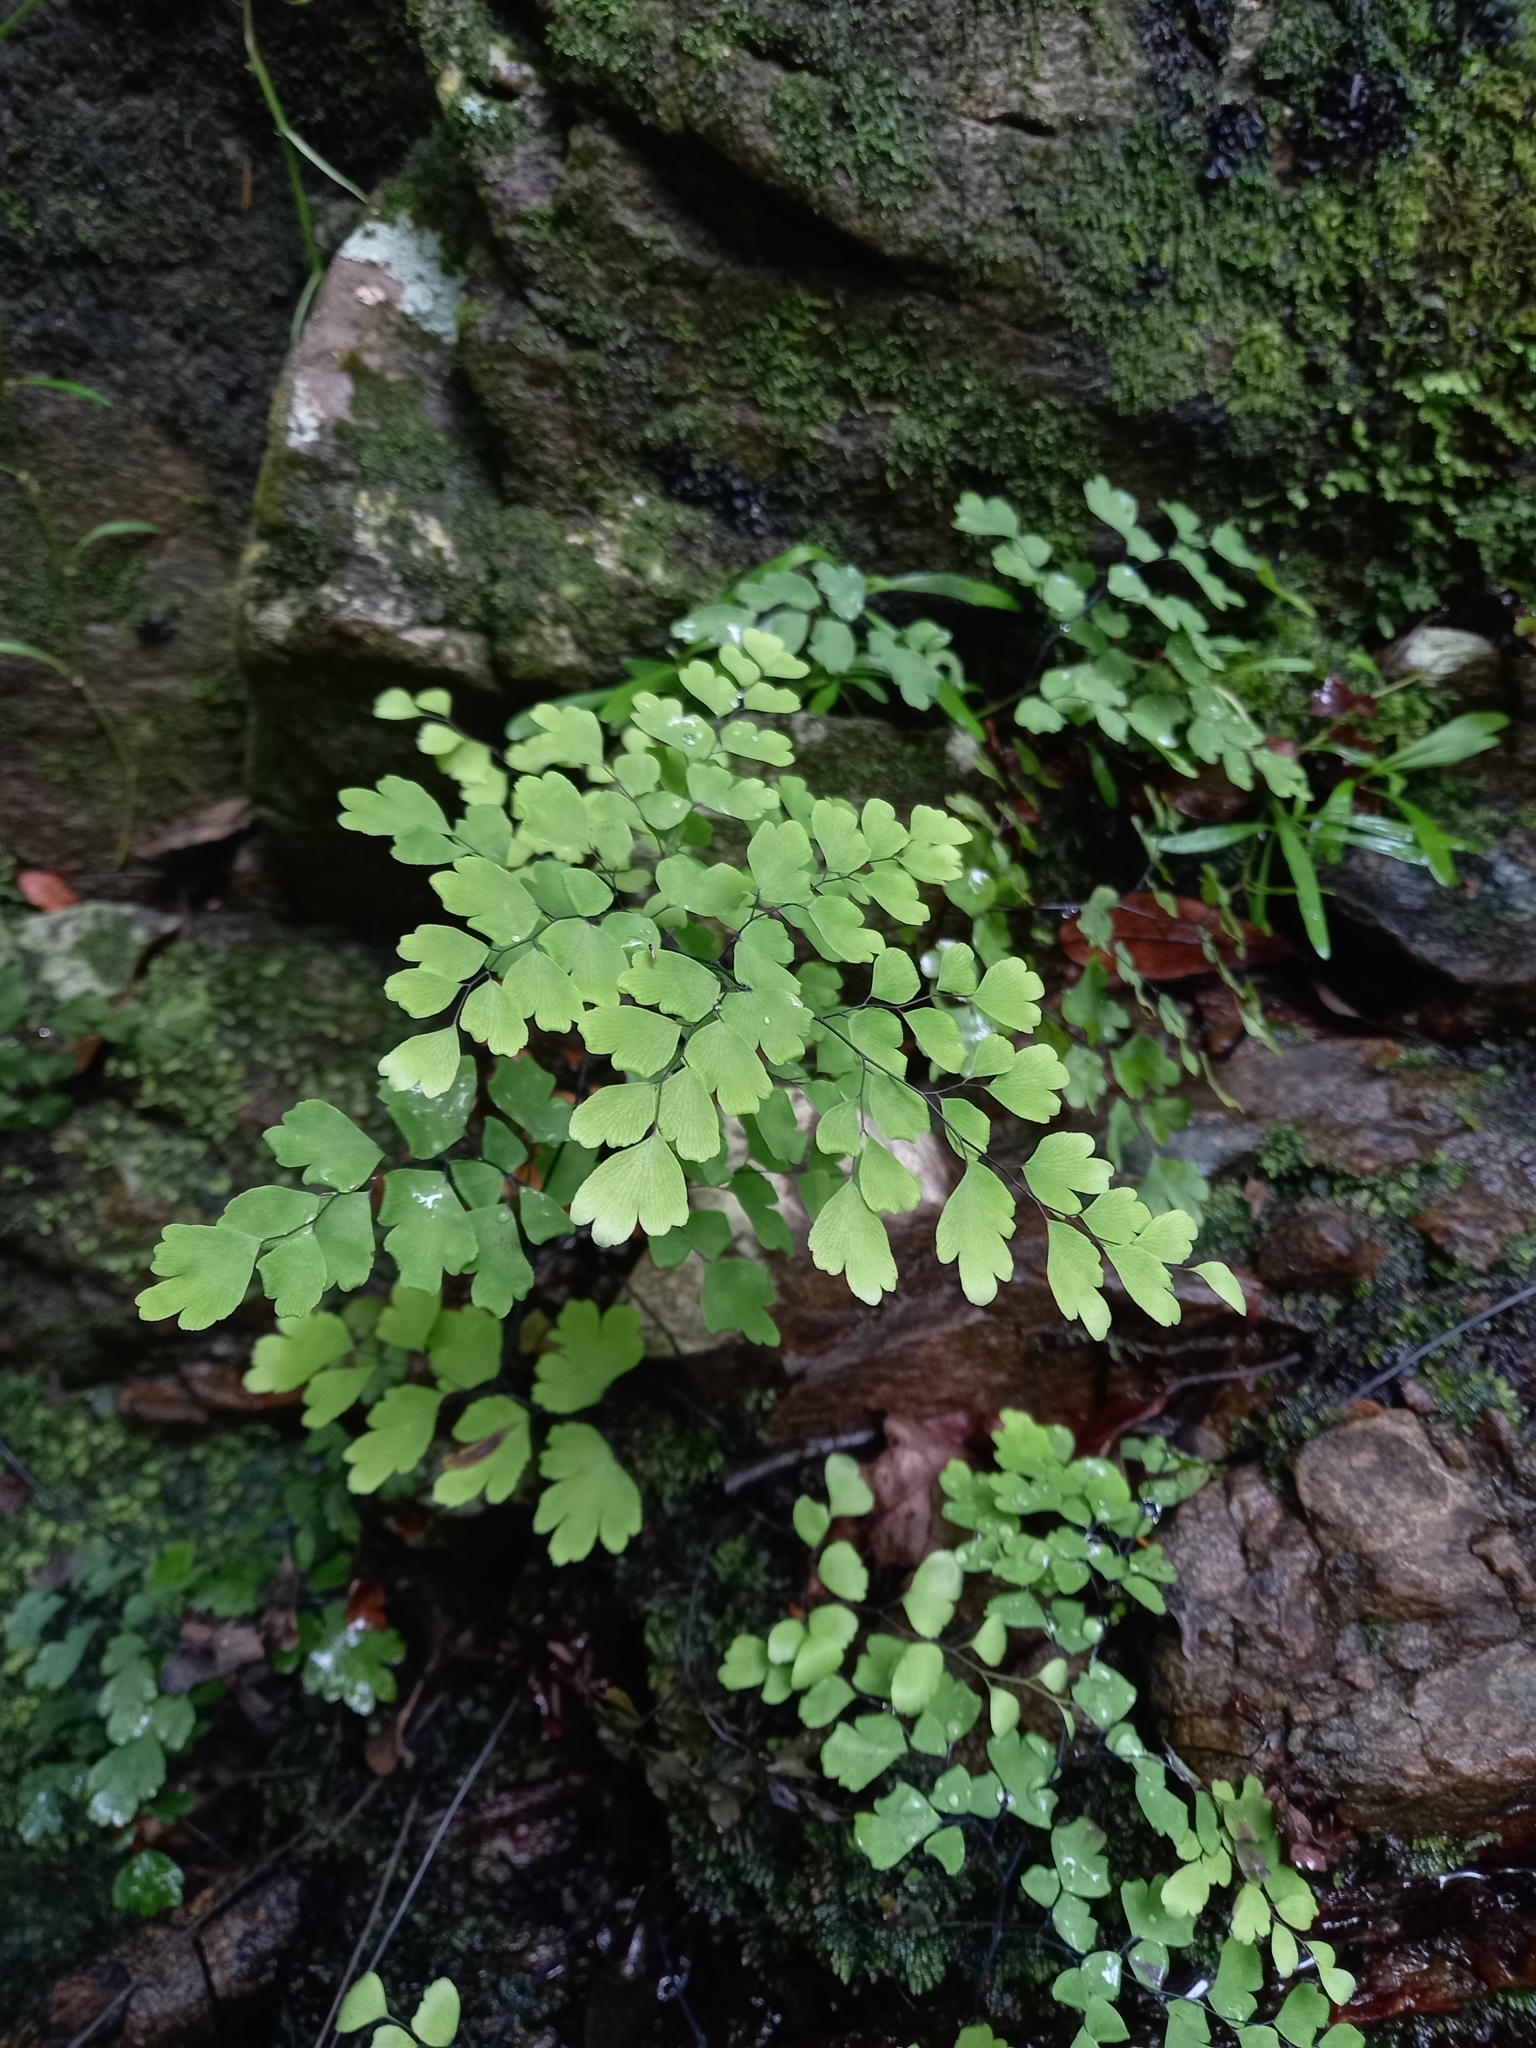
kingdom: Plantae
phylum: Tracheophyta
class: Polypodiopsida
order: Polypodiales
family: Pteridaceae
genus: Adiantum
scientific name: Adiantum capillus-veneris
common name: Maidenhair fern
